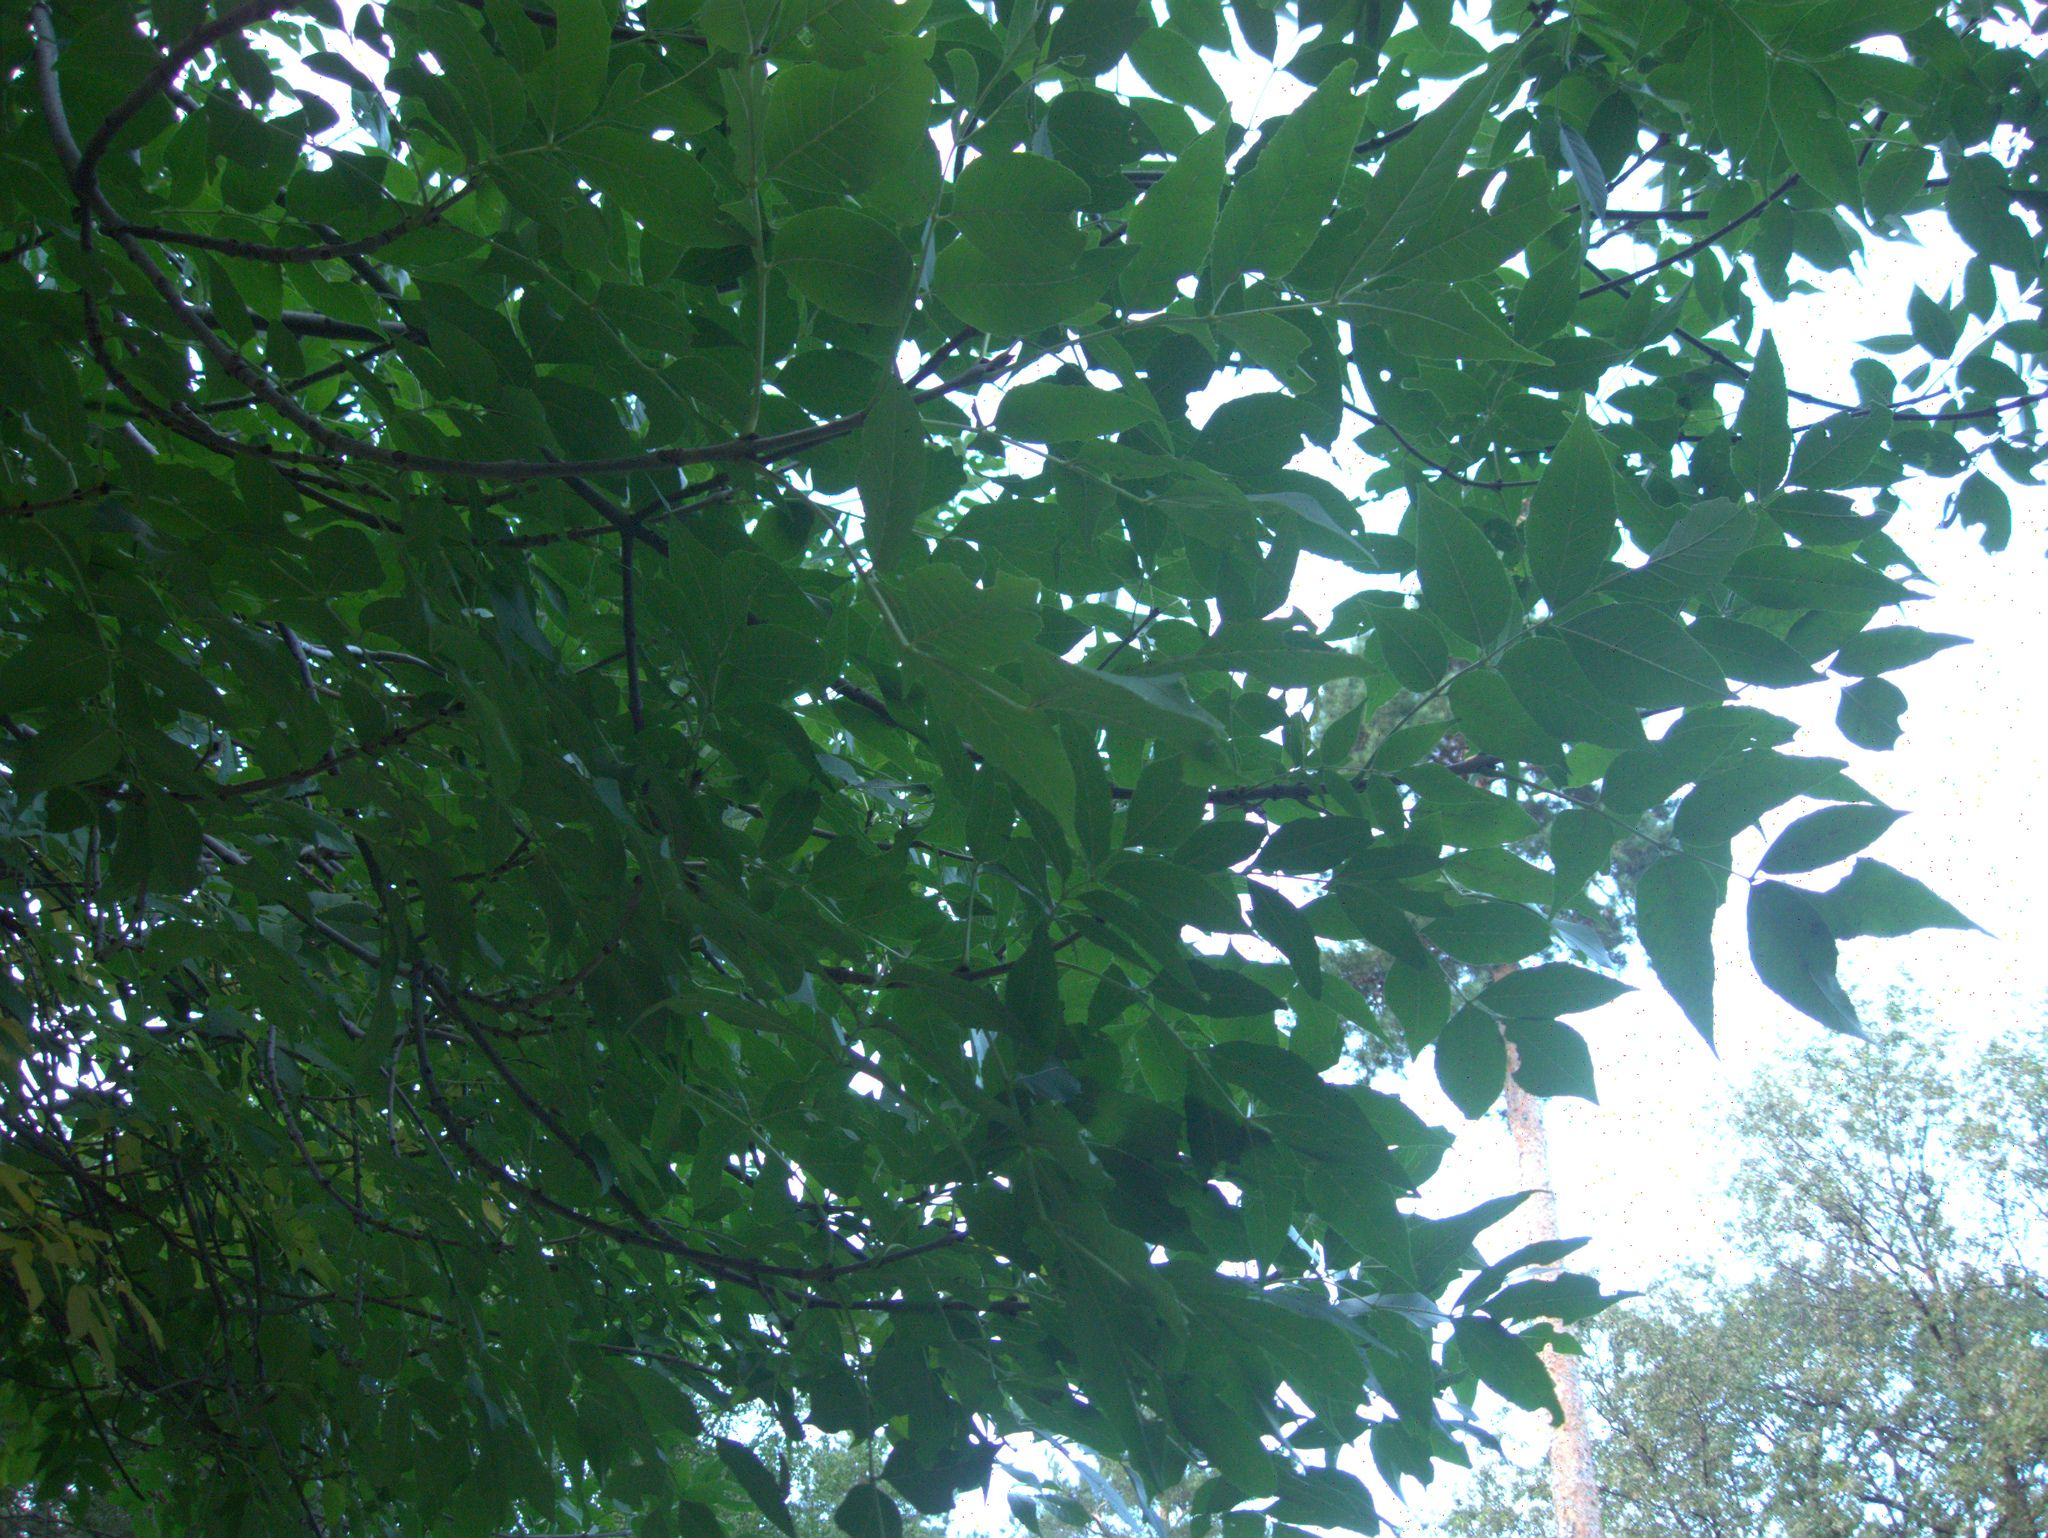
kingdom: Plantae
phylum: Tracheophyta
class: Magnoliopsida
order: Lamiales
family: Oleaceae
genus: Fraxinus
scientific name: Fraxinus pennsylvanica
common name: Green ash
